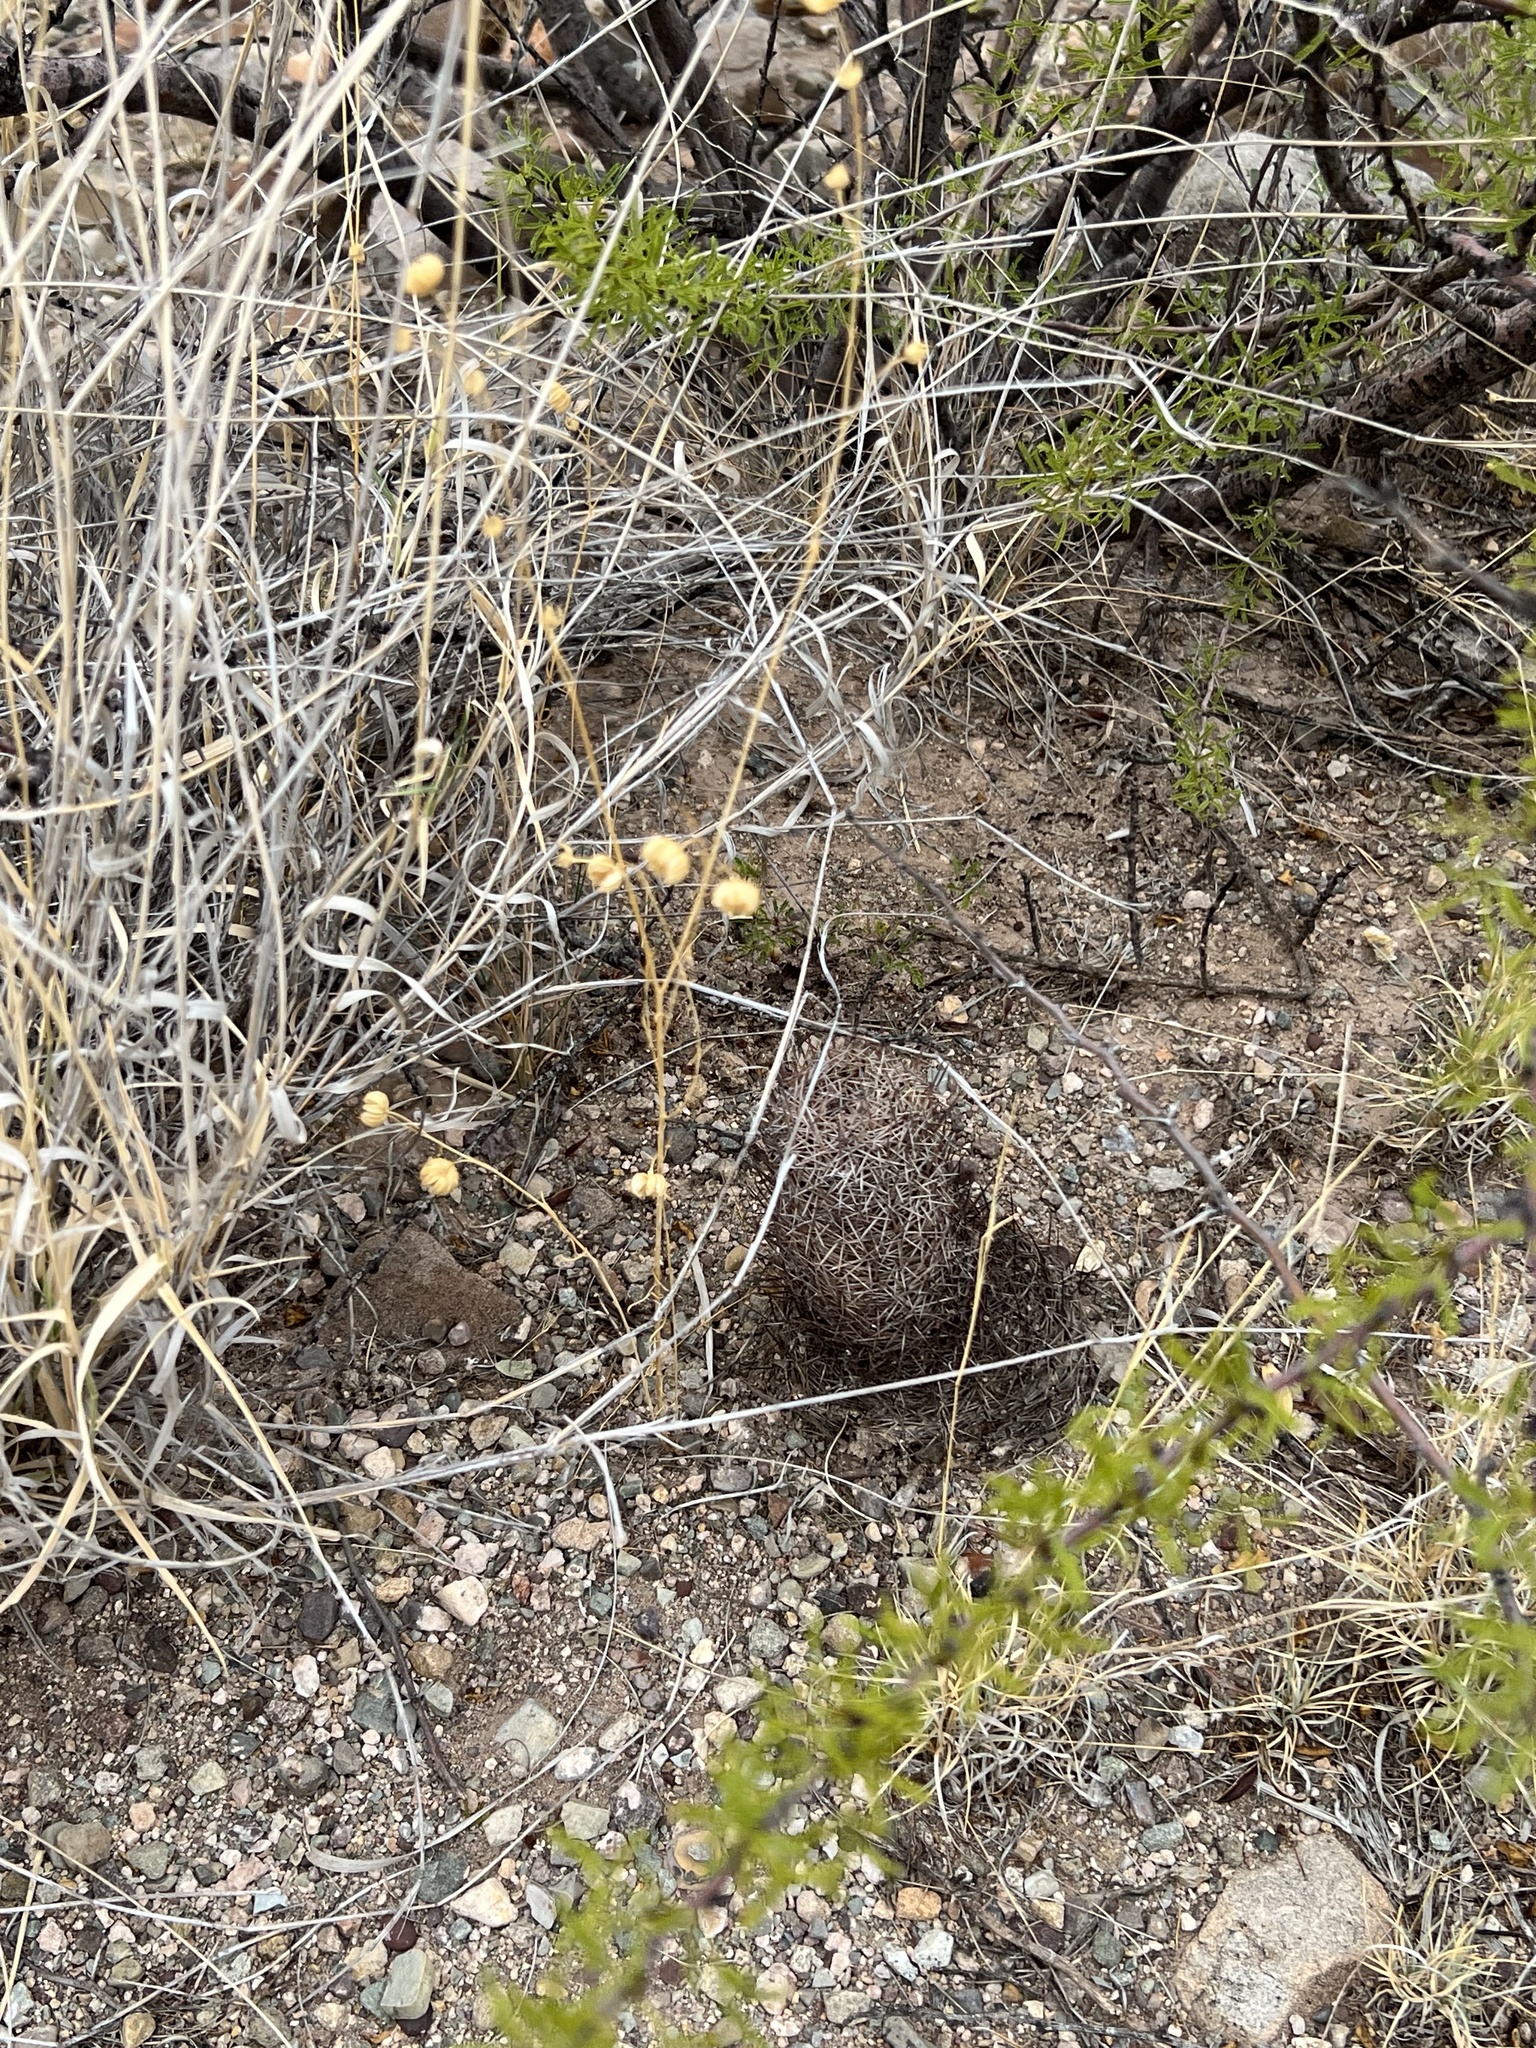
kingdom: Plantae
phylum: Tracheophyta
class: Magnoliopsida
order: Caryophyllales
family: Cactaceae
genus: Sclerocactus
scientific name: Sclerocactus johnsonii
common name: Eight-spine fishhook cactus
